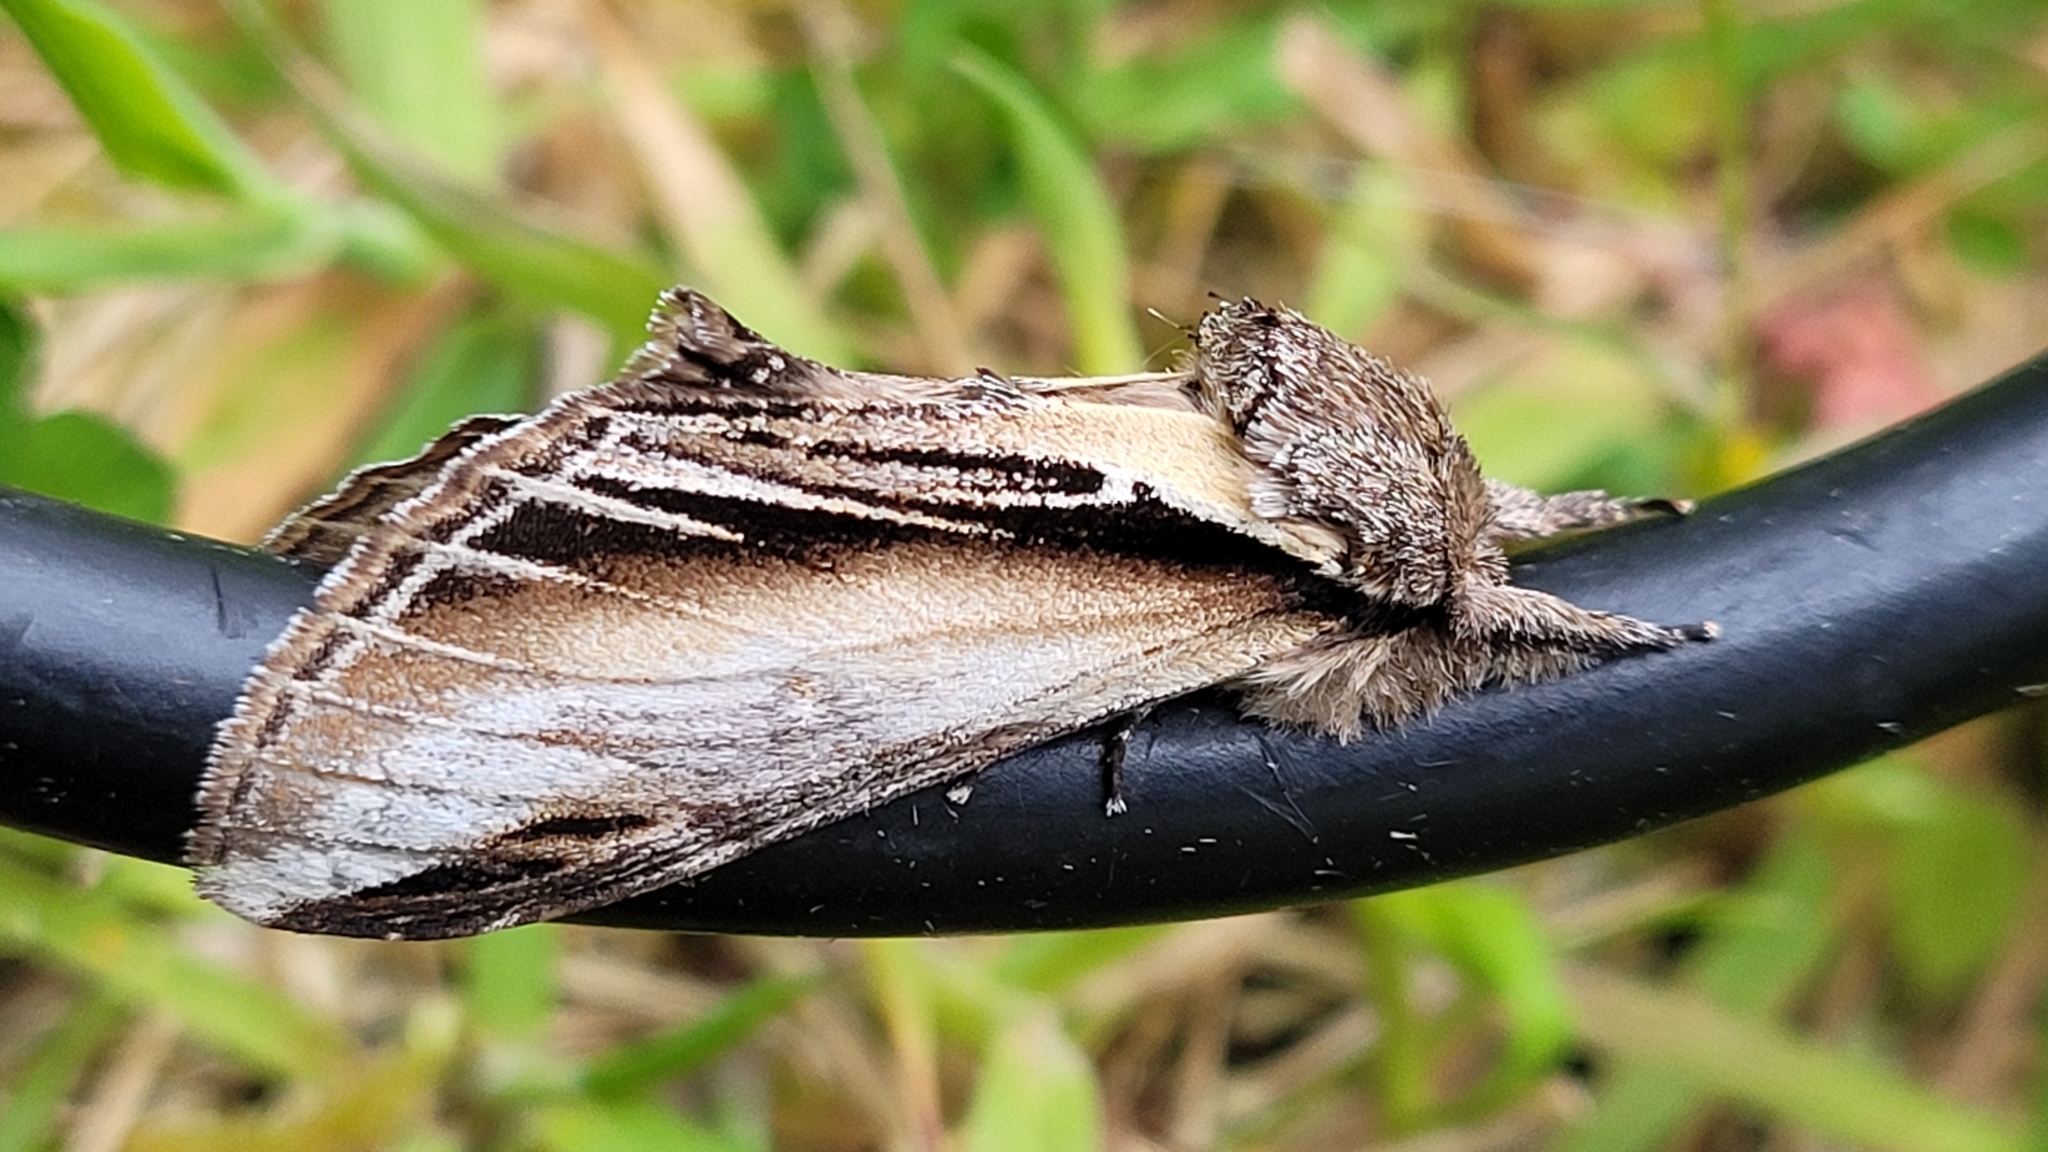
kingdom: Animalia
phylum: Arthropoda
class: Insecta
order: Lepidoptera
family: Notodontidae
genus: Pheosia
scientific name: Pheosia tremula
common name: Swallow prominent
